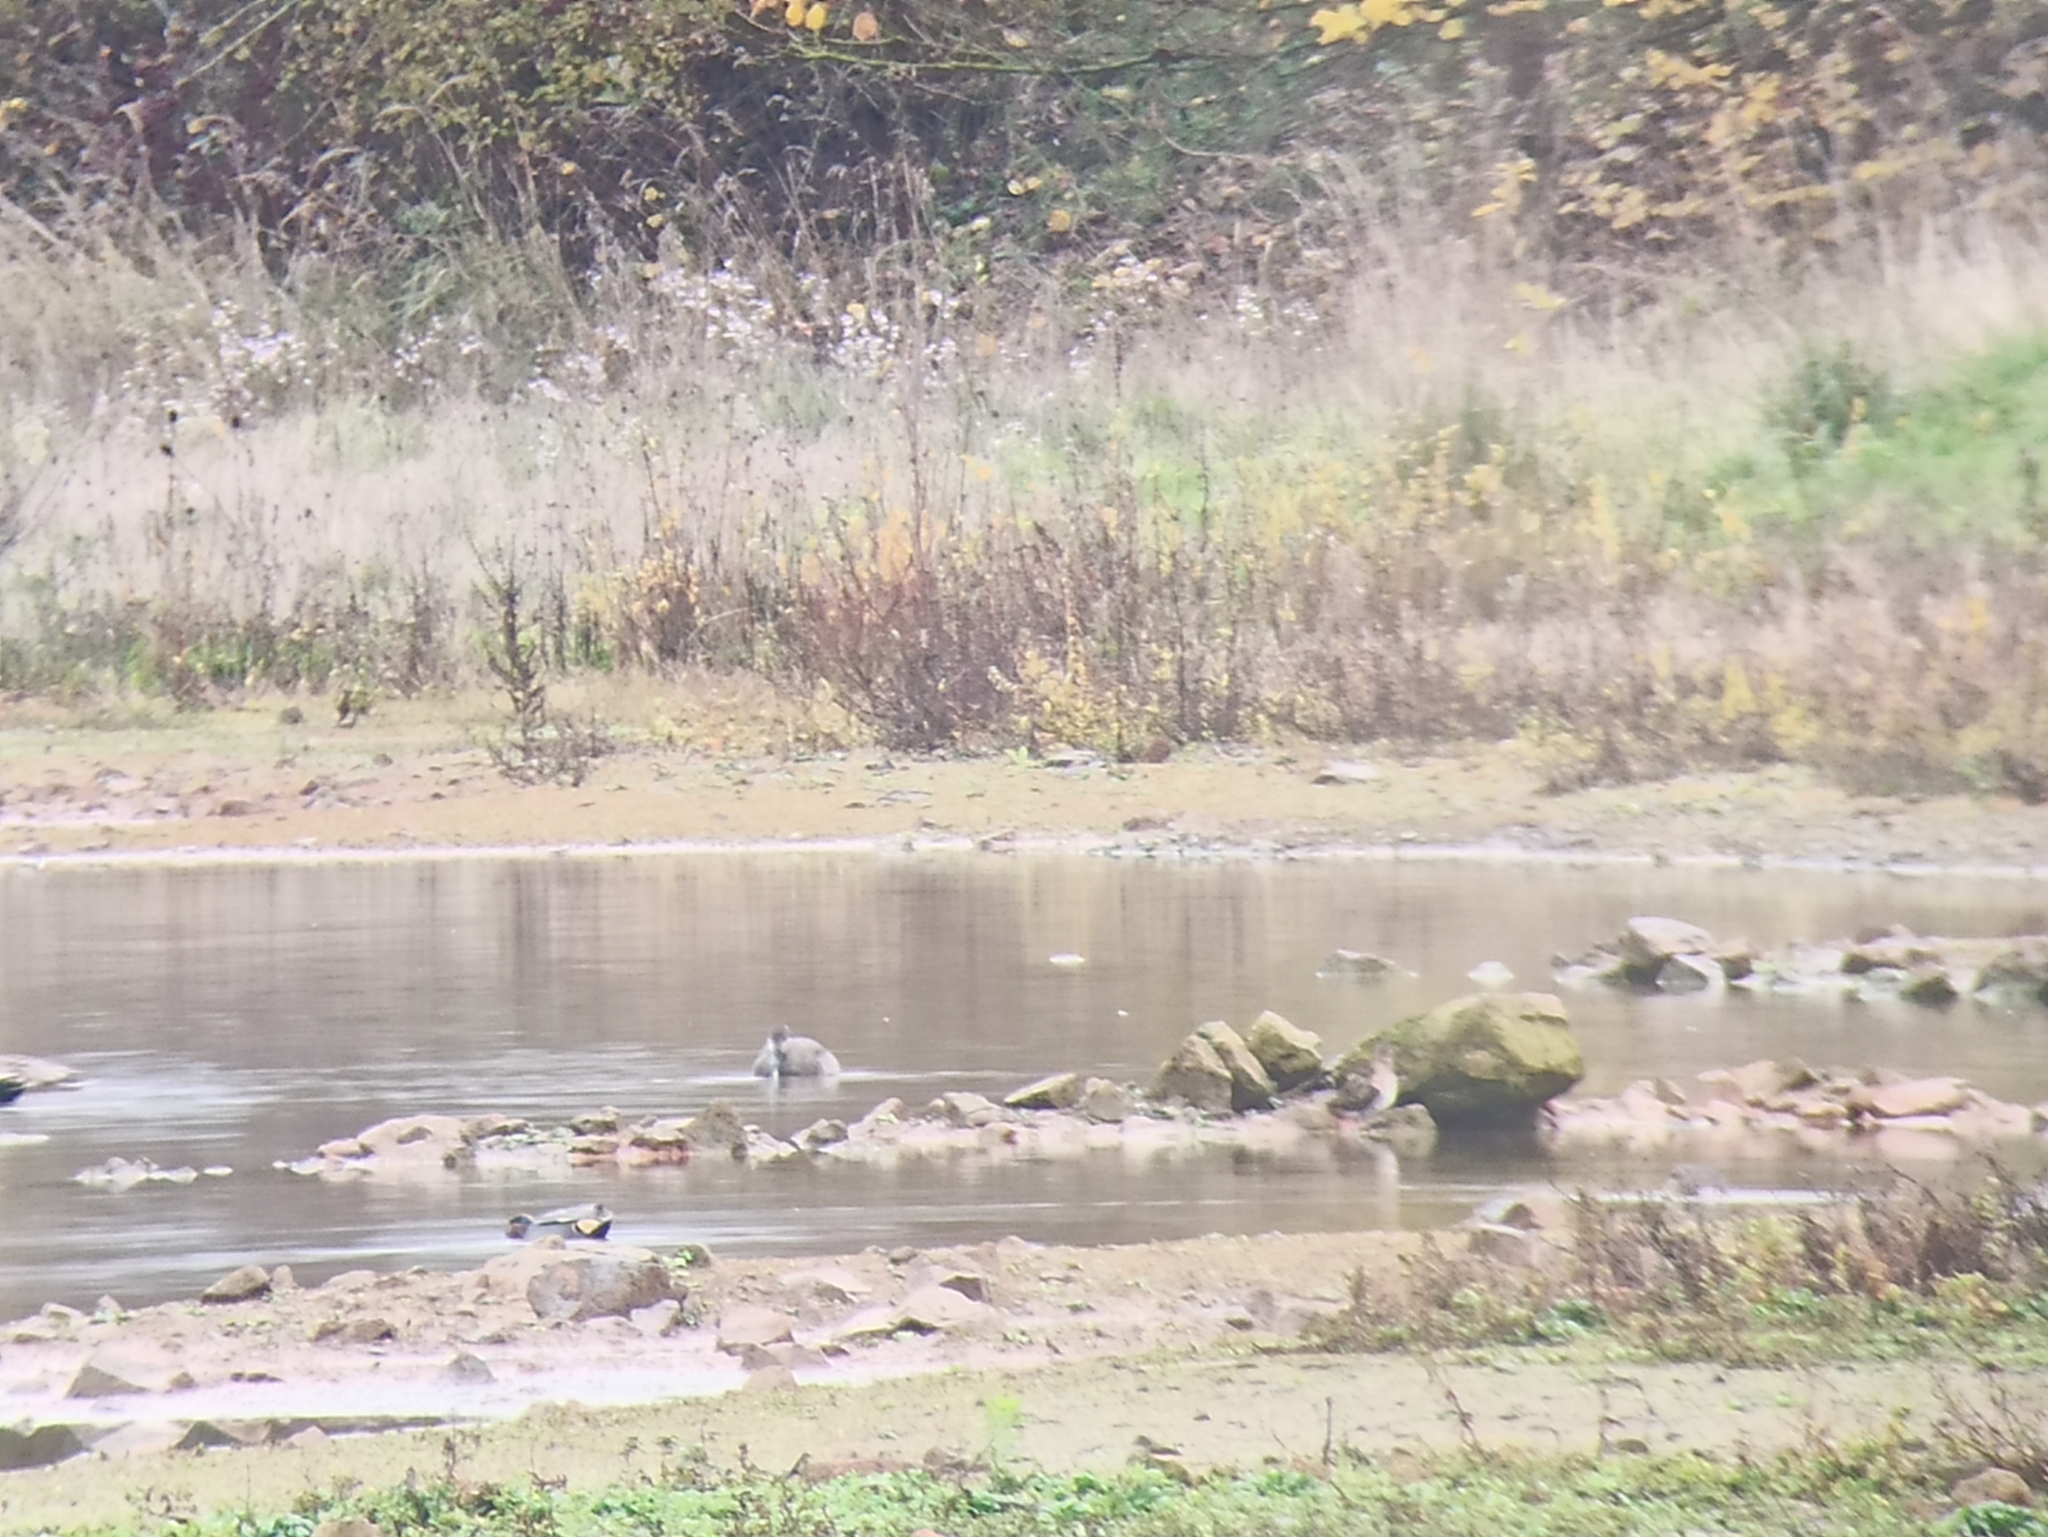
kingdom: Animalia
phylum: Chordata
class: Aves
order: Anseriformes
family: Anatidae
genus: Anas
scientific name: Anas crecca
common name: Eurasian teal
